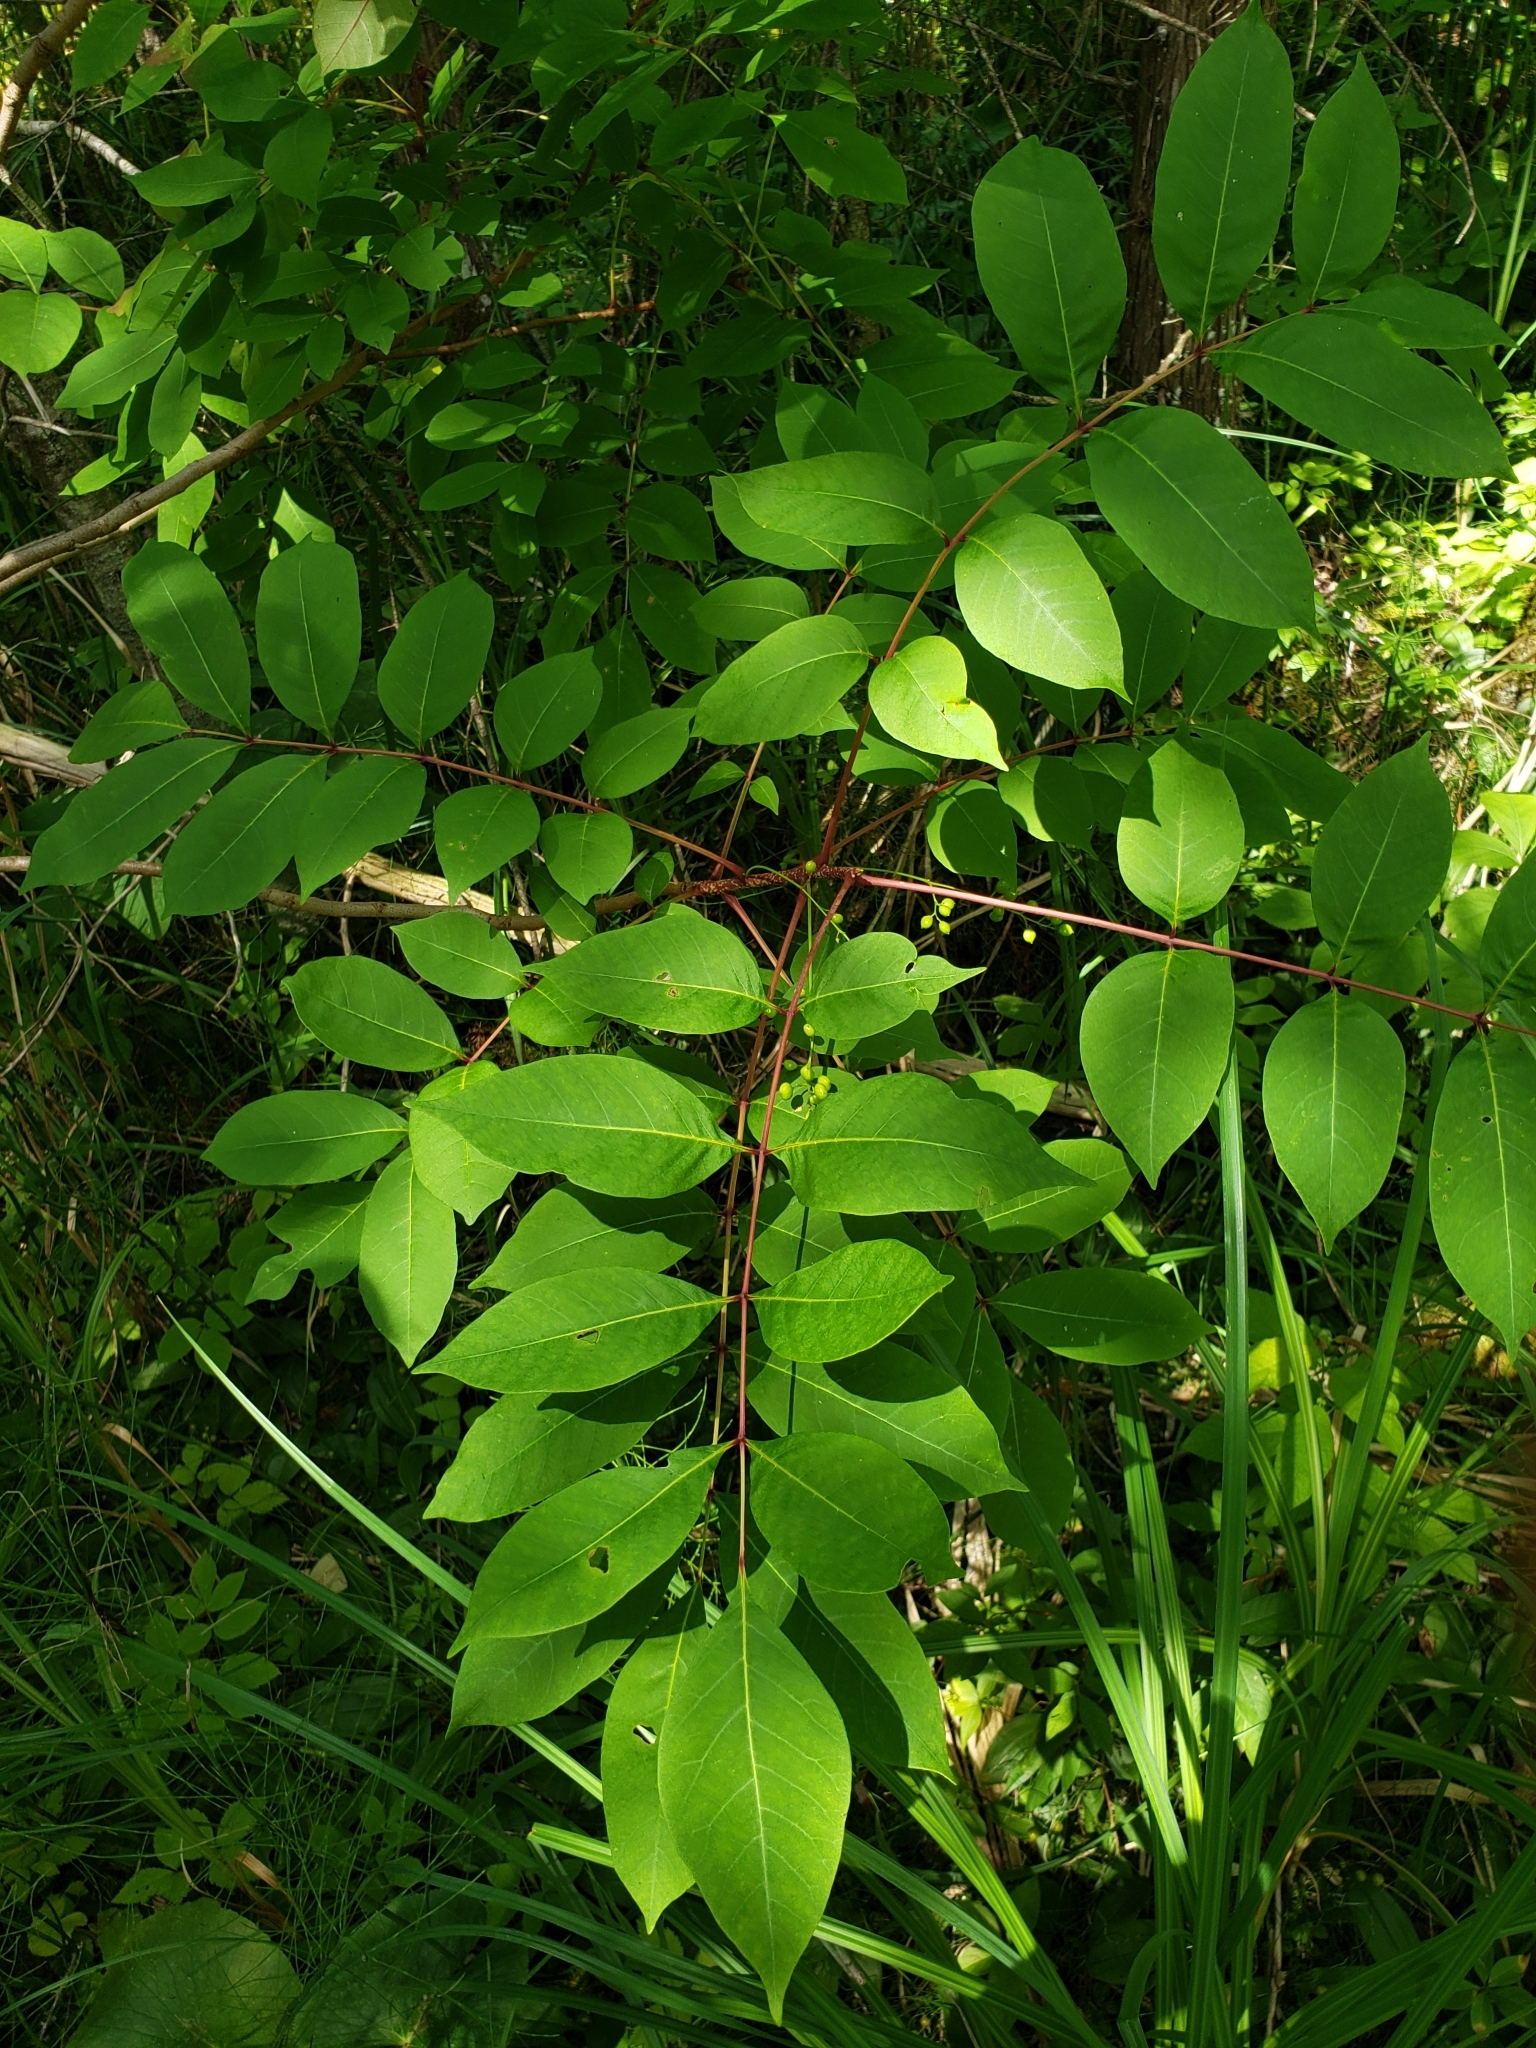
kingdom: Plantae
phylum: Tracheophyta
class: Magnoliopsida
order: Sapindales
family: Anacardiaceae
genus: Toxicodendron
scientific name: Toxicodendron vernix
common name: Poison sumac
